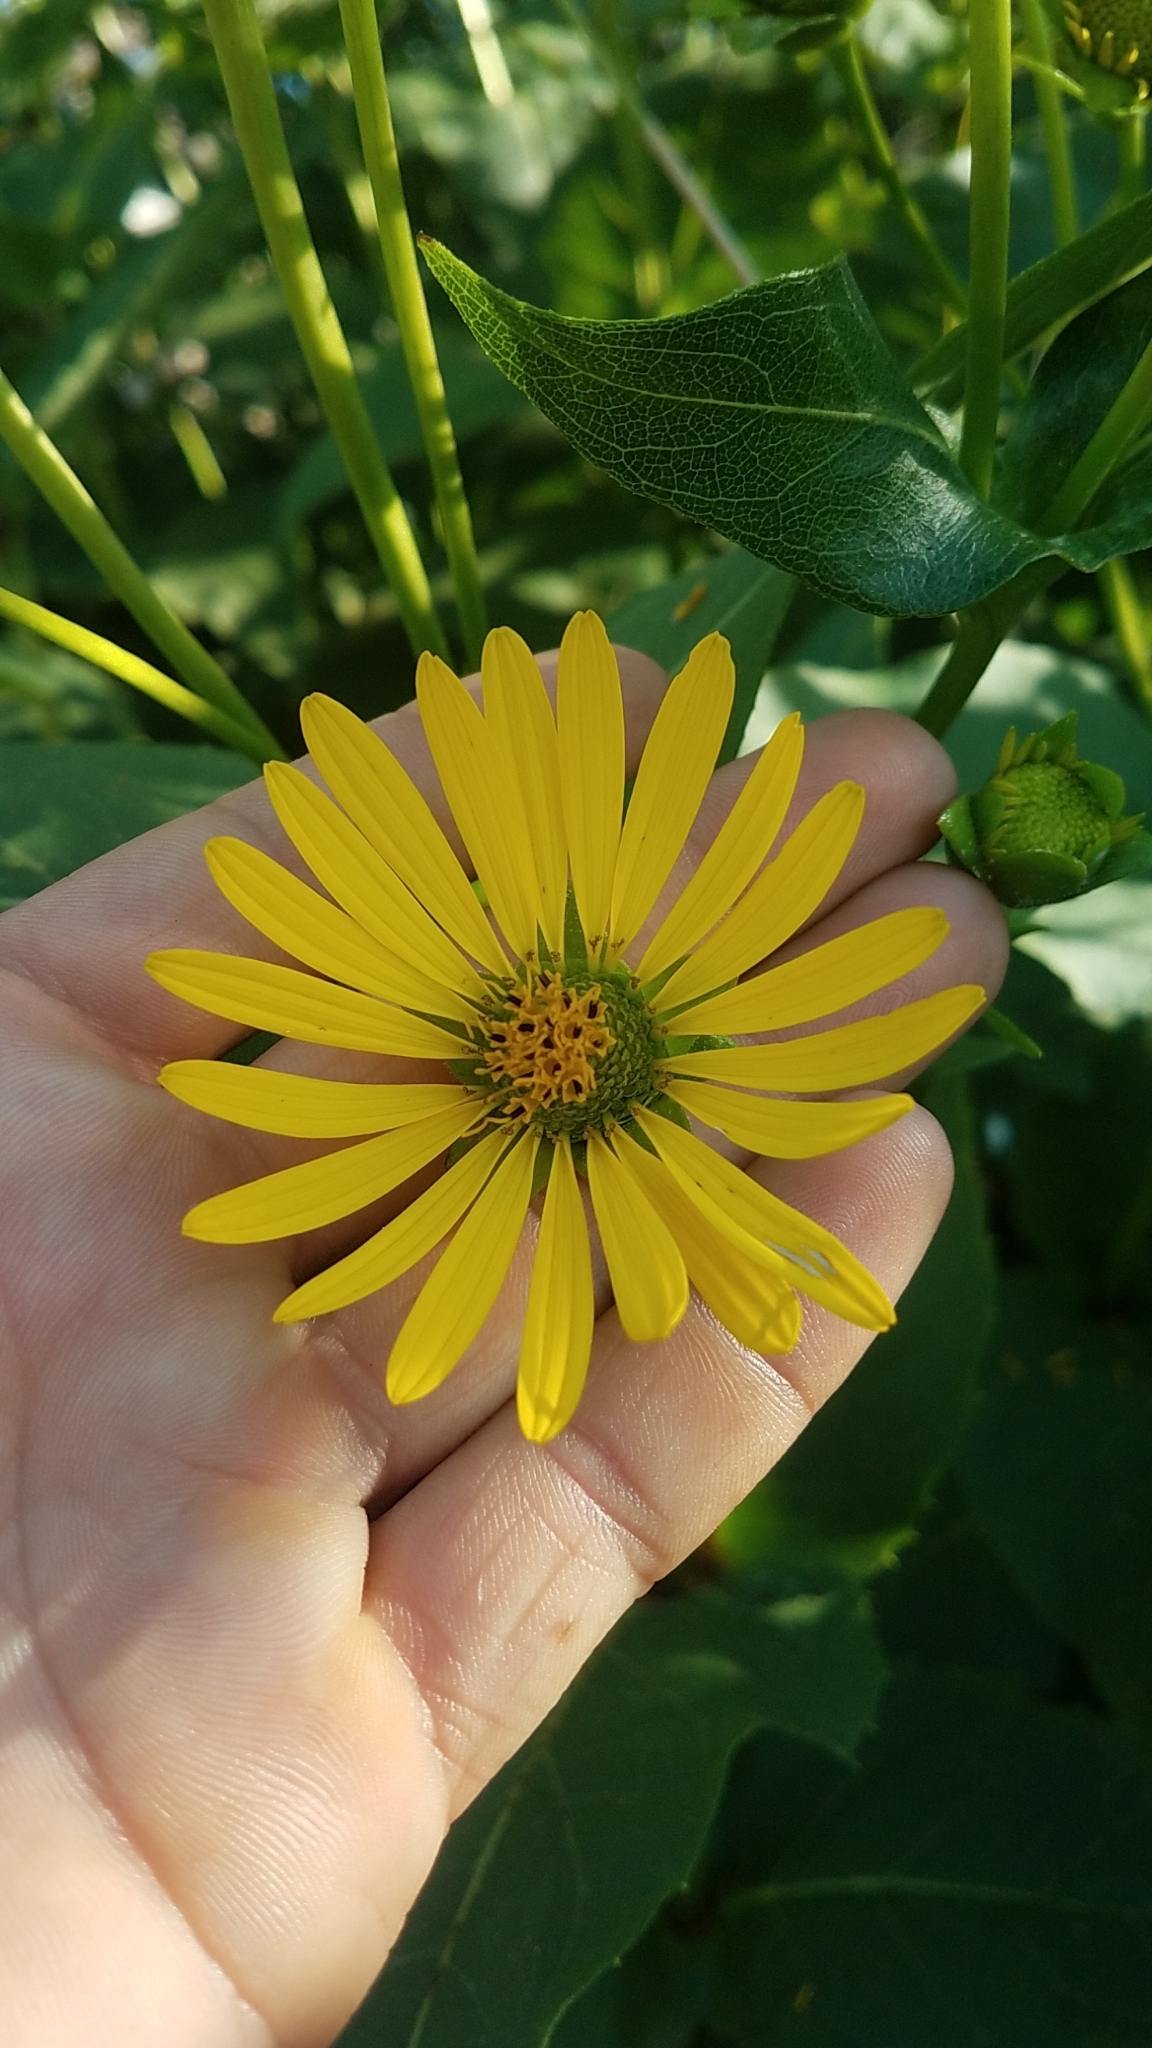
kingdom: Plantae
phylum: Tracheophyta
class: Magnoliopsida
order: Asterales
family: Asteraceae
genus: Silphium
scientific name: Silphium perfoliatum
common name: Cup-plant
